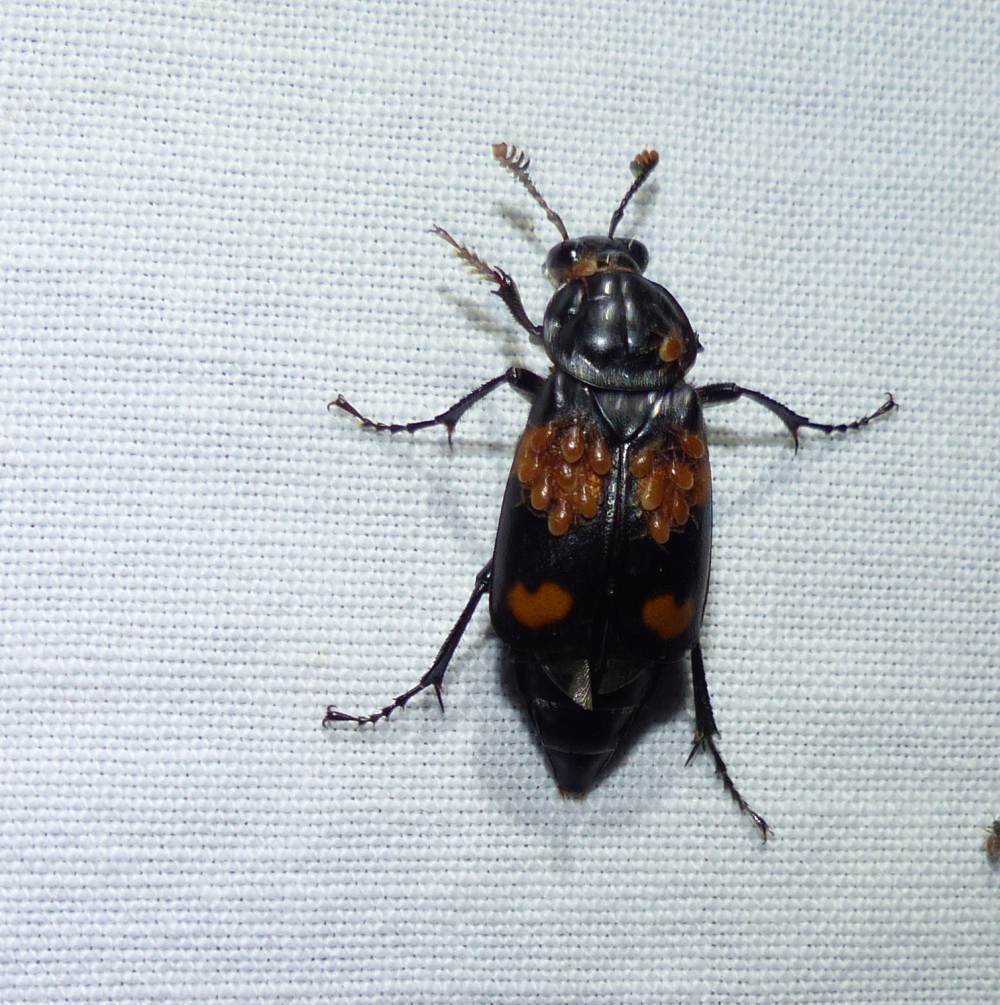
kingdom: Animalia
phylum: Arthropoda
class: Insecta
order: Coleoptera
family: Staphylinidae
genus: Nicrophorus
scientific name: Nicrophorus orbicollis
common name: Roundneck sexton beetle
